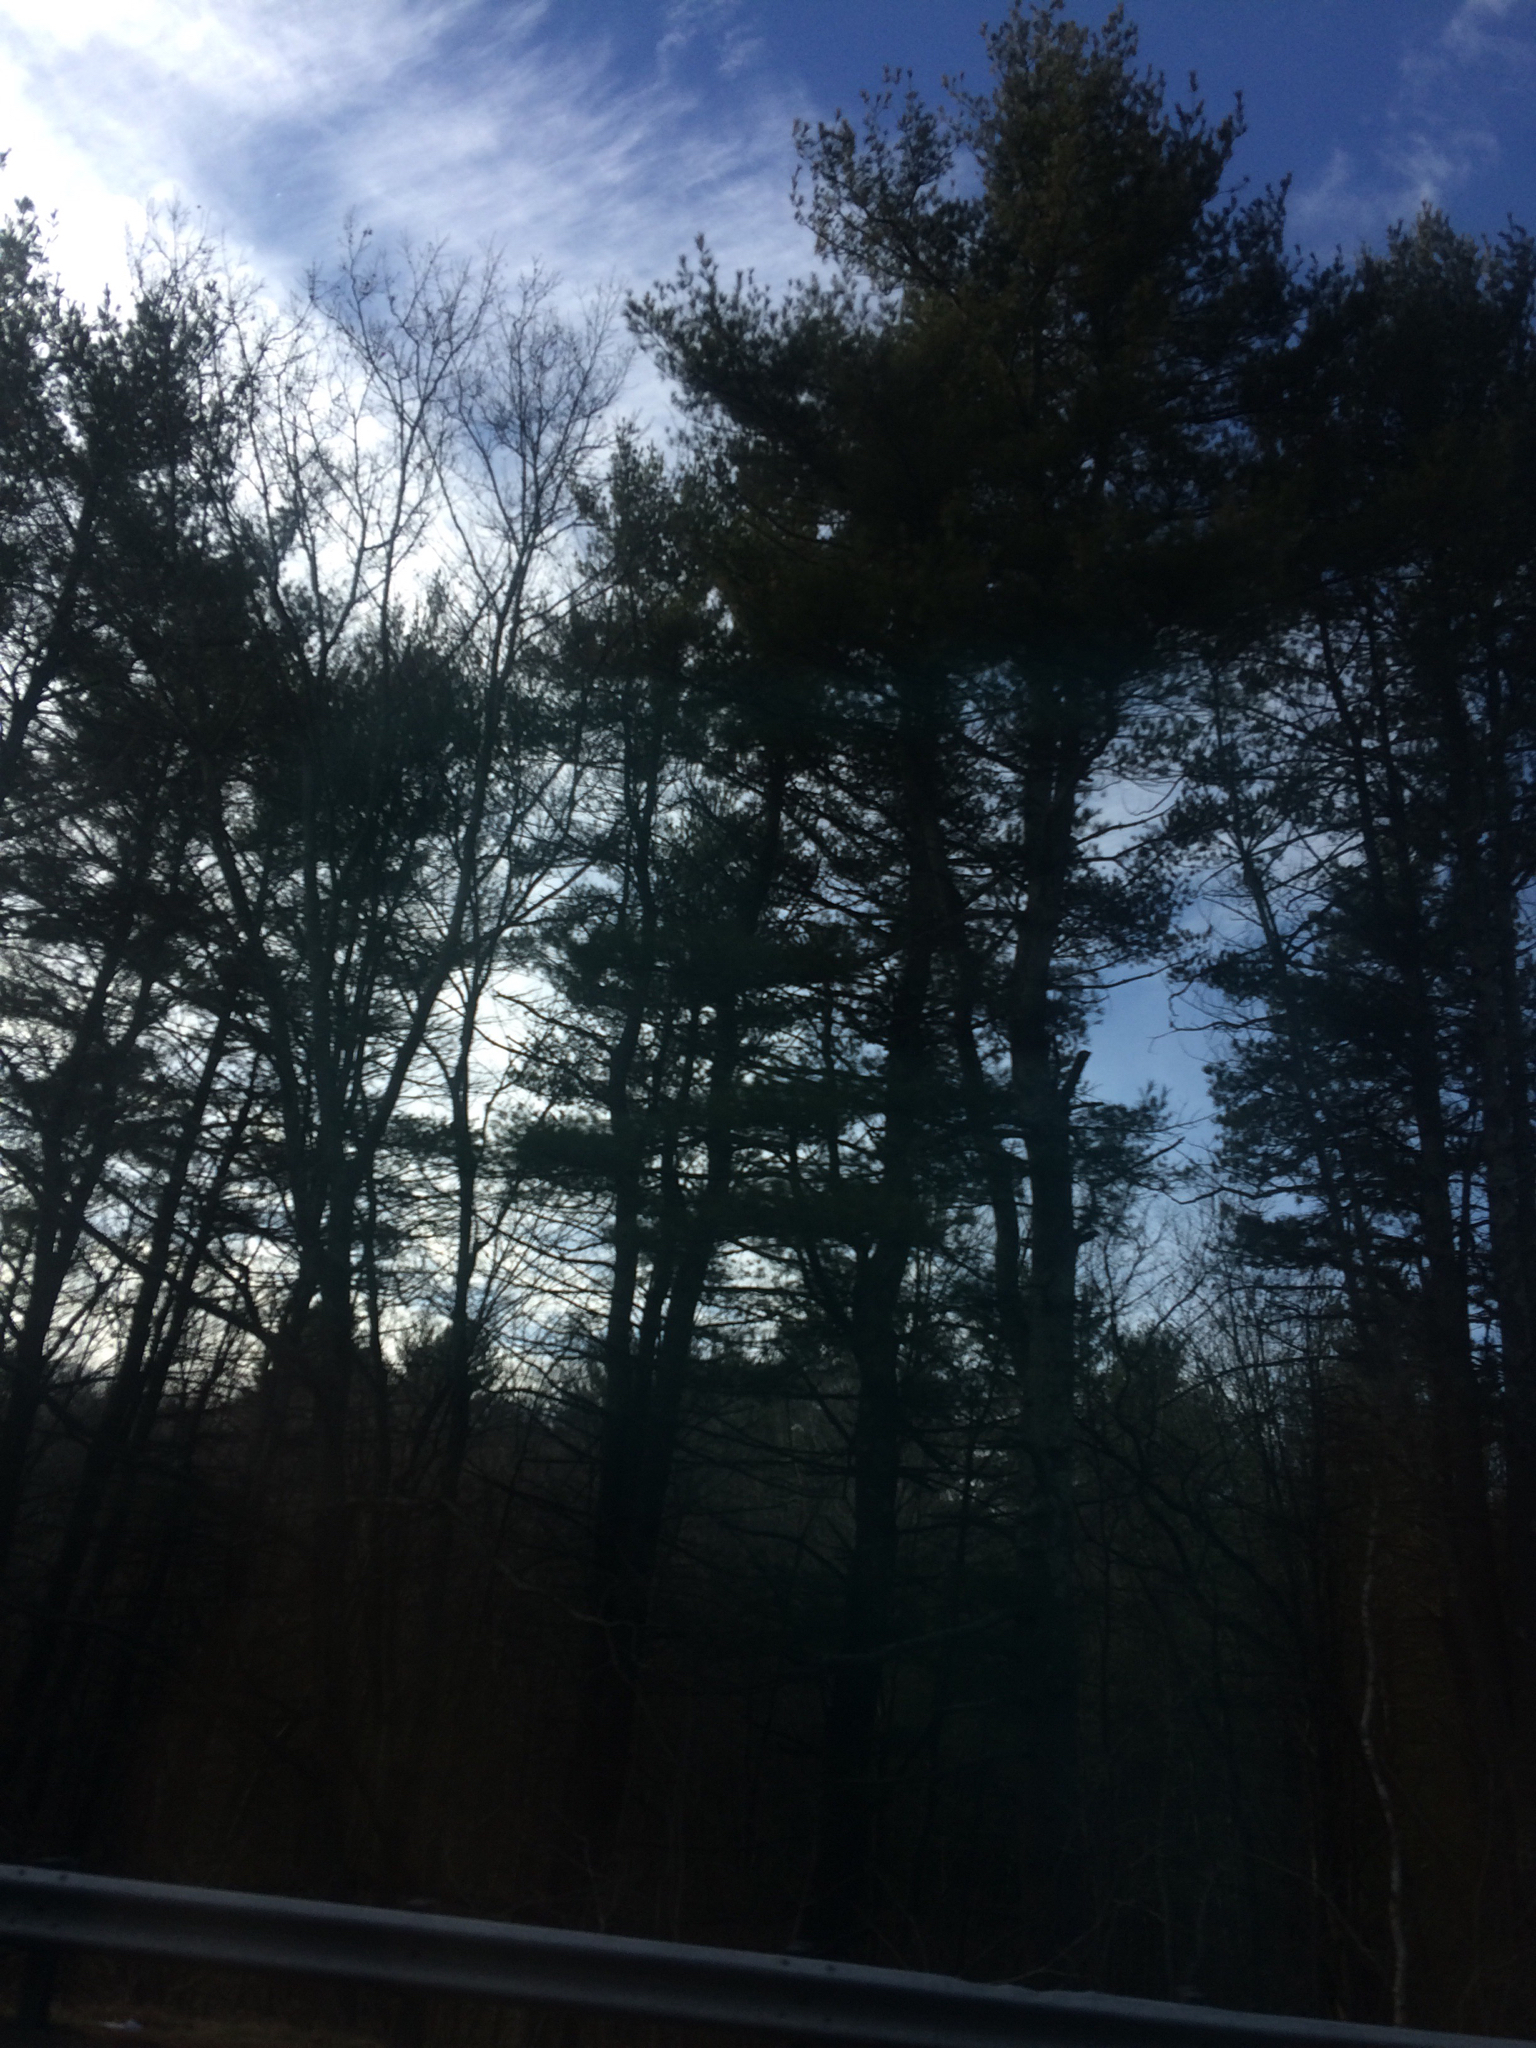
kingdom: Plantae
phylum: Tracheophyta
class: Pinopsida
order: Pinales
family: Pinaceae
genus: Pinus
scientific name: Pinus strobus
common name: Weymouth pine
